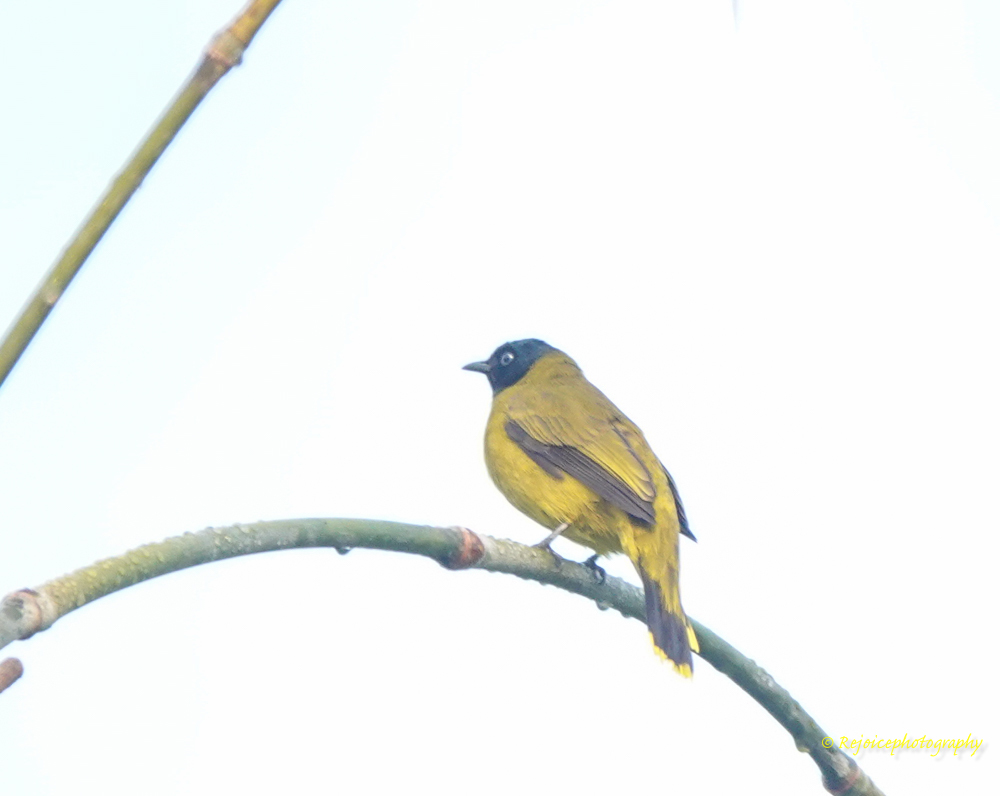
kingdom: Animalia
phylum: Chordata
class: Aves
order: Passeriformes
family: Pycnonotidae
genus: Microtarsus
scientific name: Microtarsus
